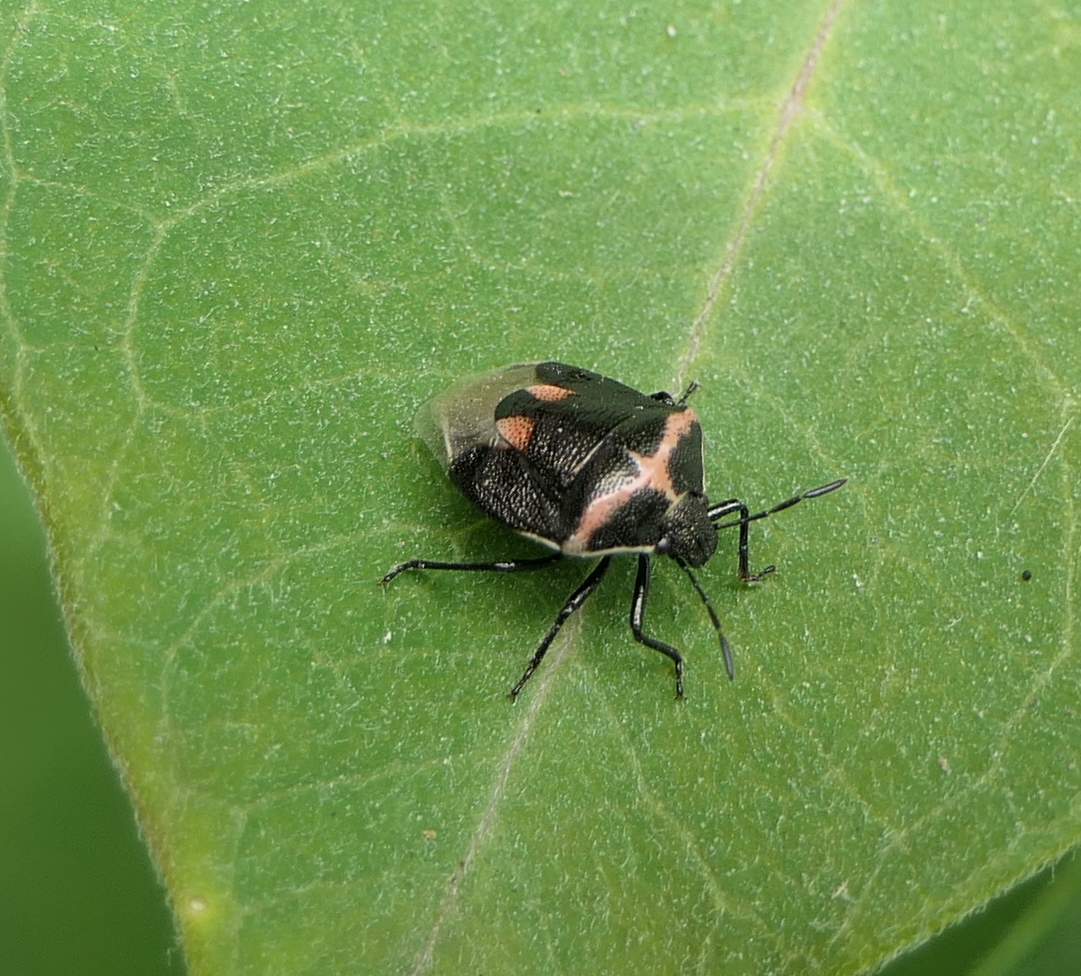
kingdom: Animalia
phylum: Arthropoda
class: Insecta
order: Hemiptera
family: Pentatomidae
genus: Cosmopepla
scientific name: Cosmopepla lintneriana
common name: Twice-stabbed stink bug
